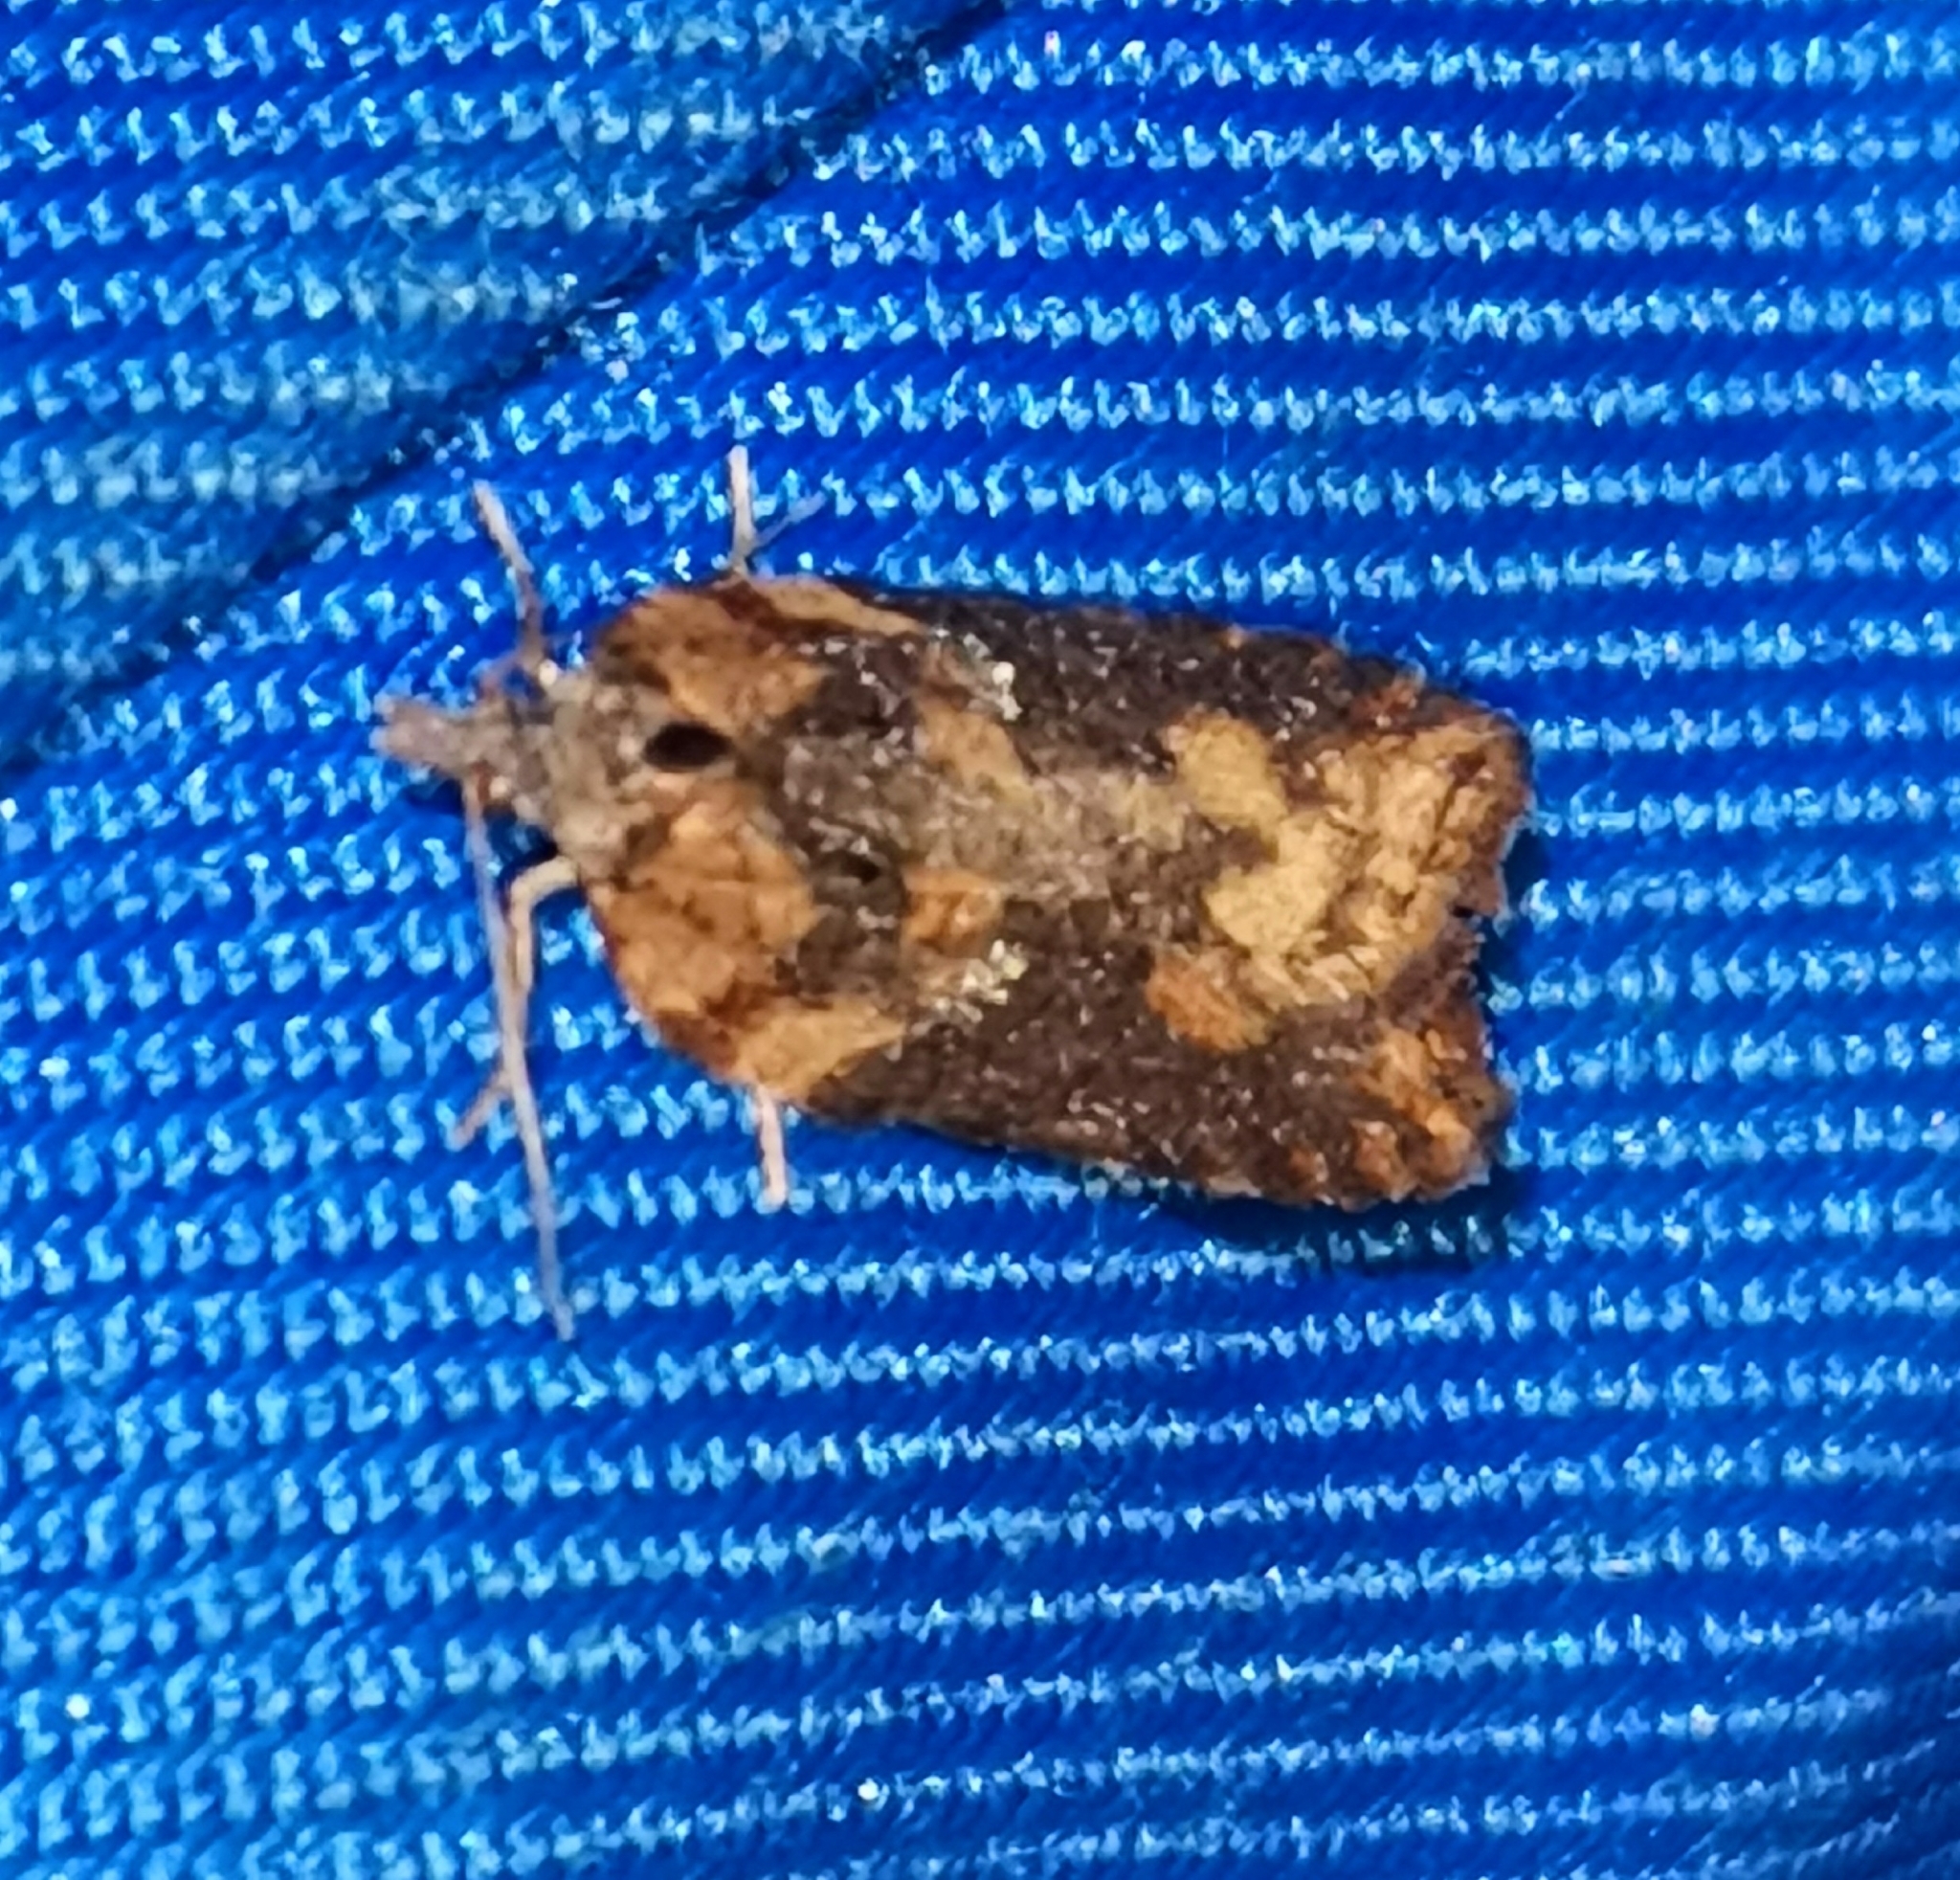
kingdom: Animalia
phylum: Arthropoda
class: Insecta
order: Lepidoptera
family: Tortricidae
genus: Acleris
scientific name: Acleris abietana
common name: Perth button
